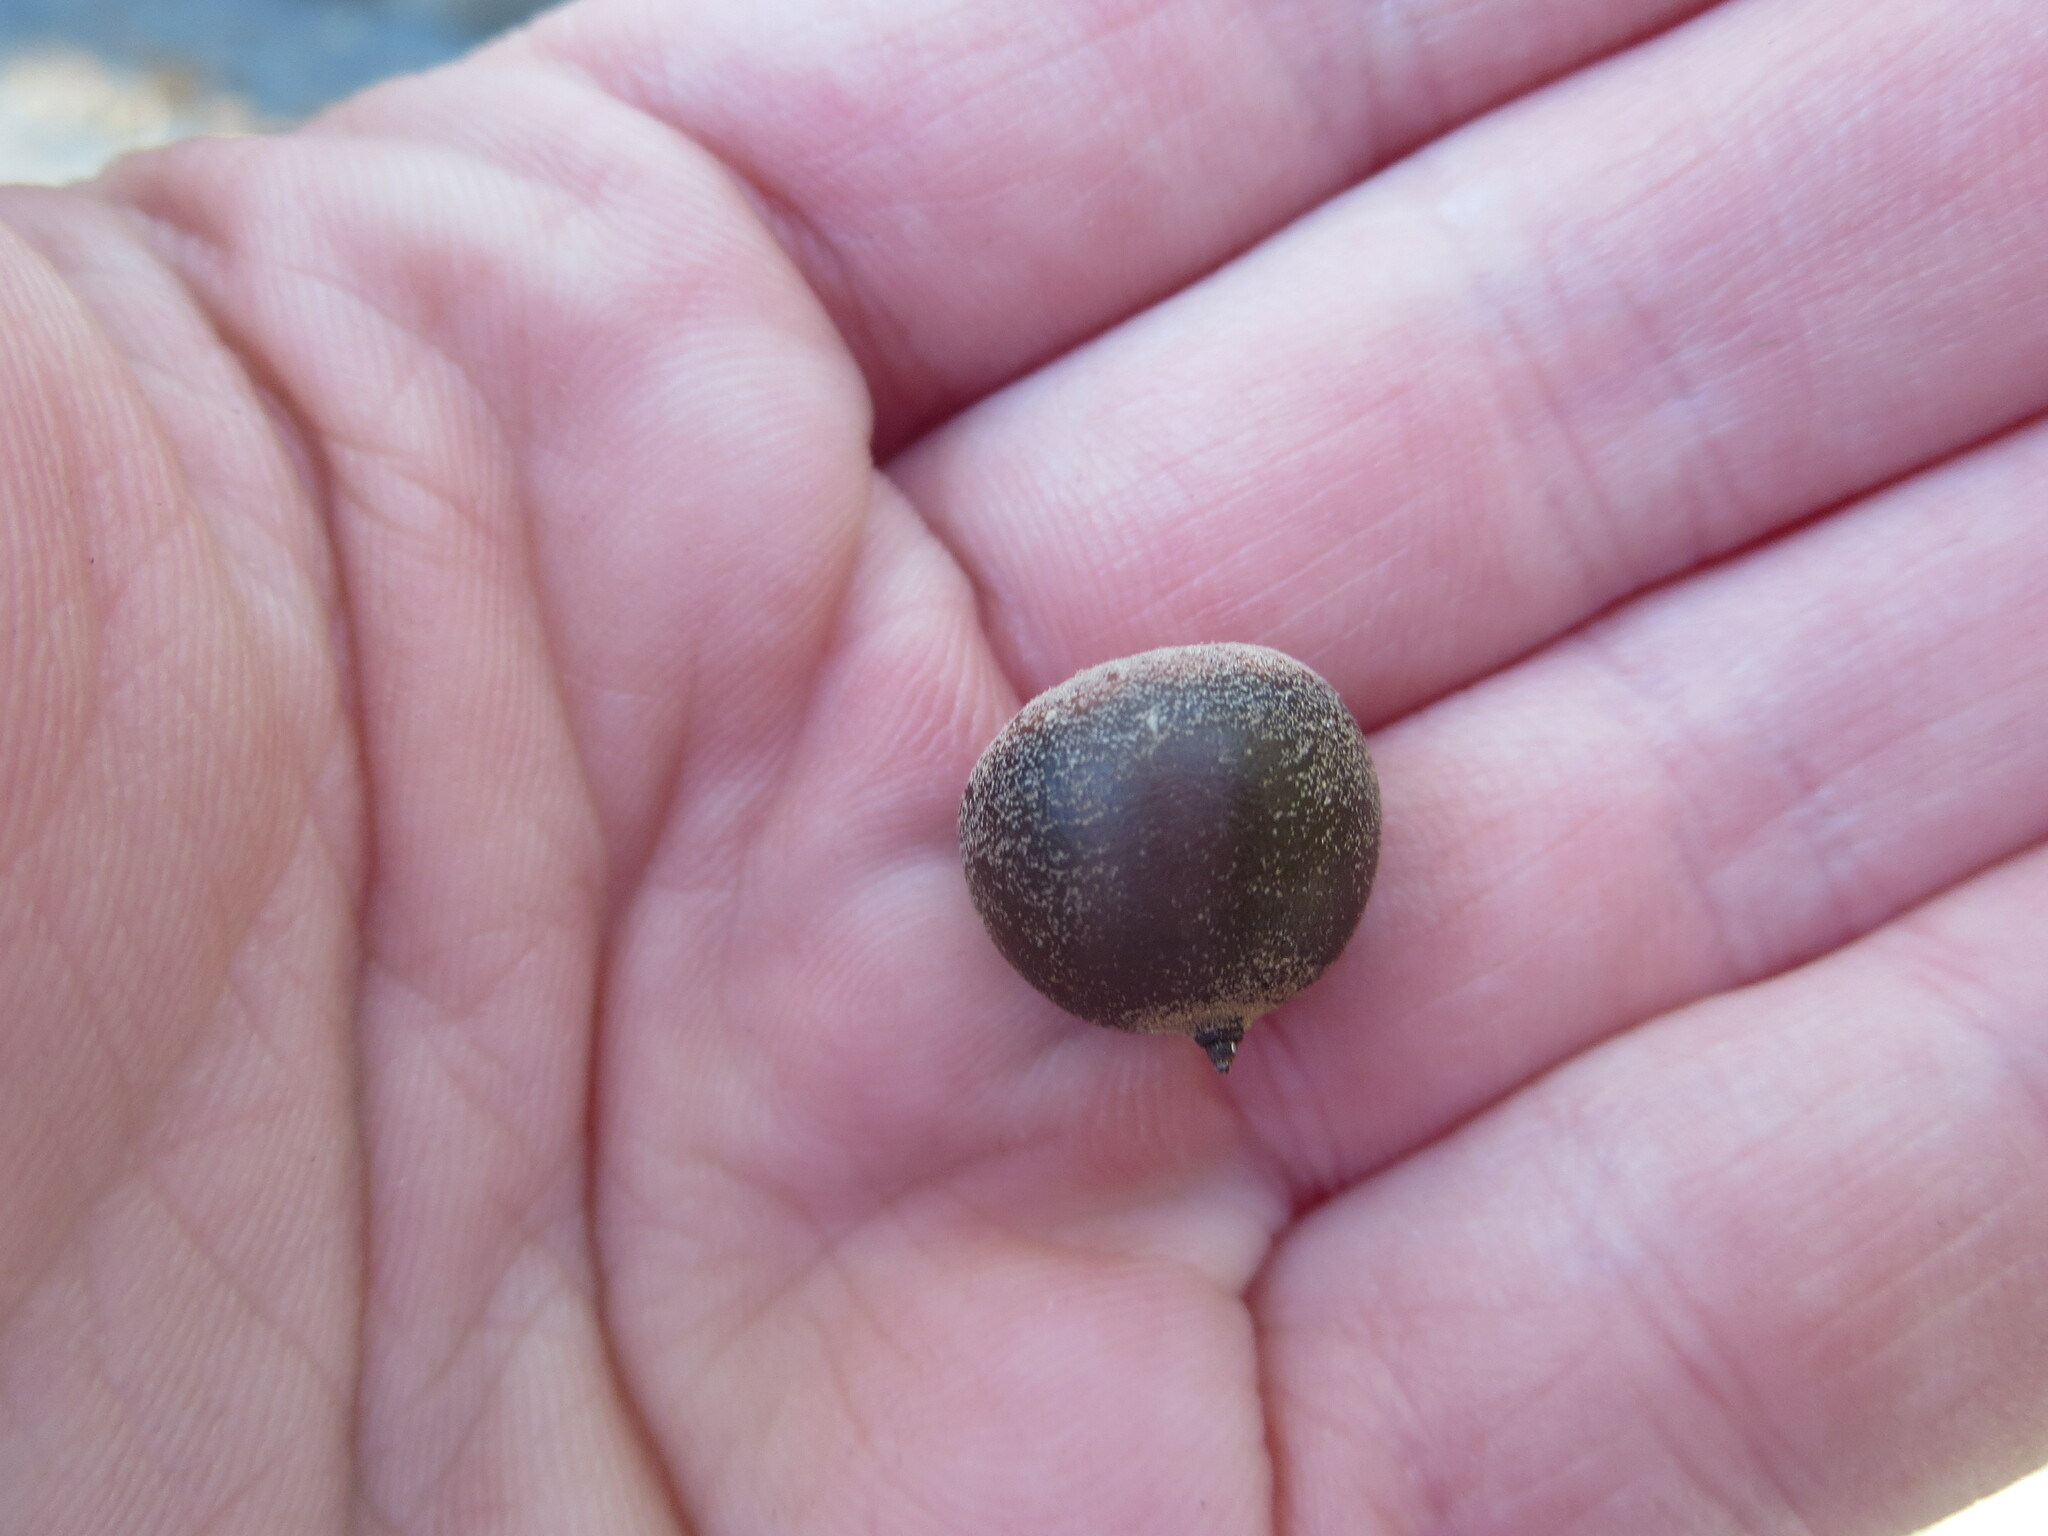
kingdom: Plantae
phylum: Tracheophyta
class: Magnoliopsida
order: Fagales
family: Fagaceae
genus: Quercus
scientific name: Quercus hemisphaerica
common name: Darlington oak
